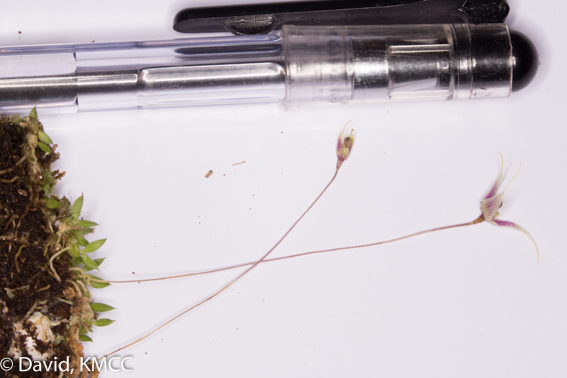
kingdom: Plantae
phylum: Tracheophyta
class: Liliopsida
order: Asparagales
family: Orchidaceae
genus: Bulbophyllum
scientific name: Bulbophyllum hapalanthos
